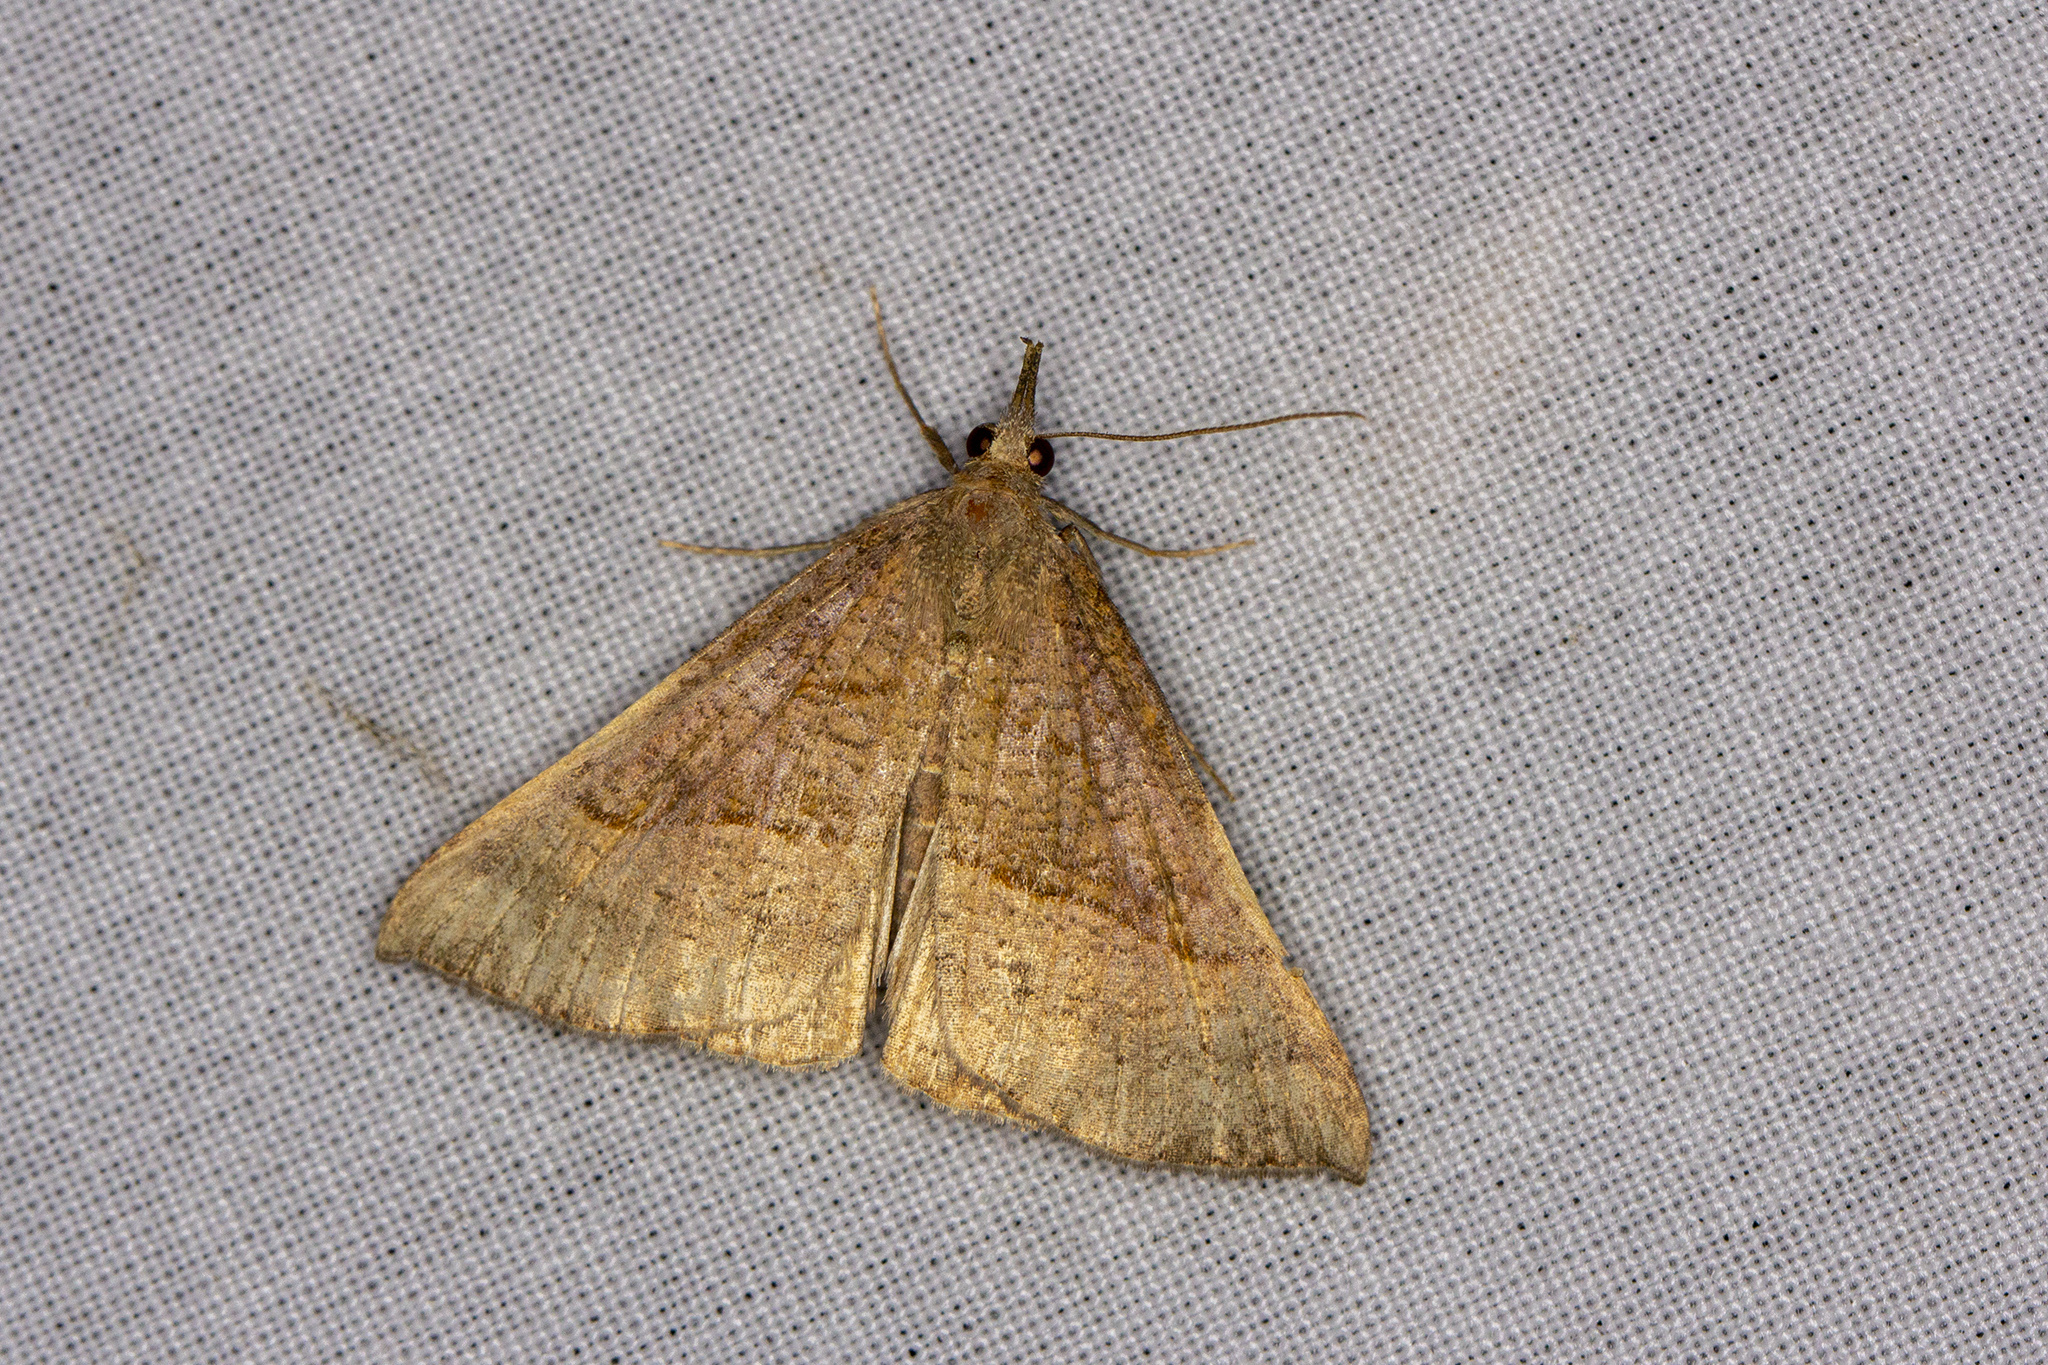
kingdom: Animalia
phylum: Arthropoda
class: Insecta
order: Lepidoptera
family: Erebidae
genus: Hypena
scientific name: Hypena proboscidalis
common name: Snout
